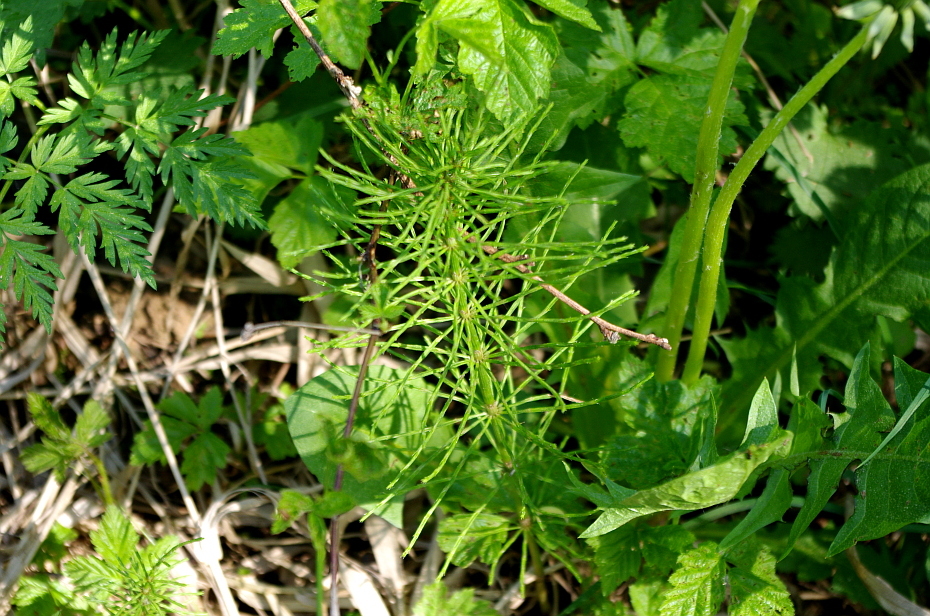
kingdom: Plantae
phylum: Tracheophyta
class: Polypodiopsida
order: Equisetales
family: Equisetaceae
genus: Equisetum
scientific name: Equisetum arvense
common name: Field horsetail
